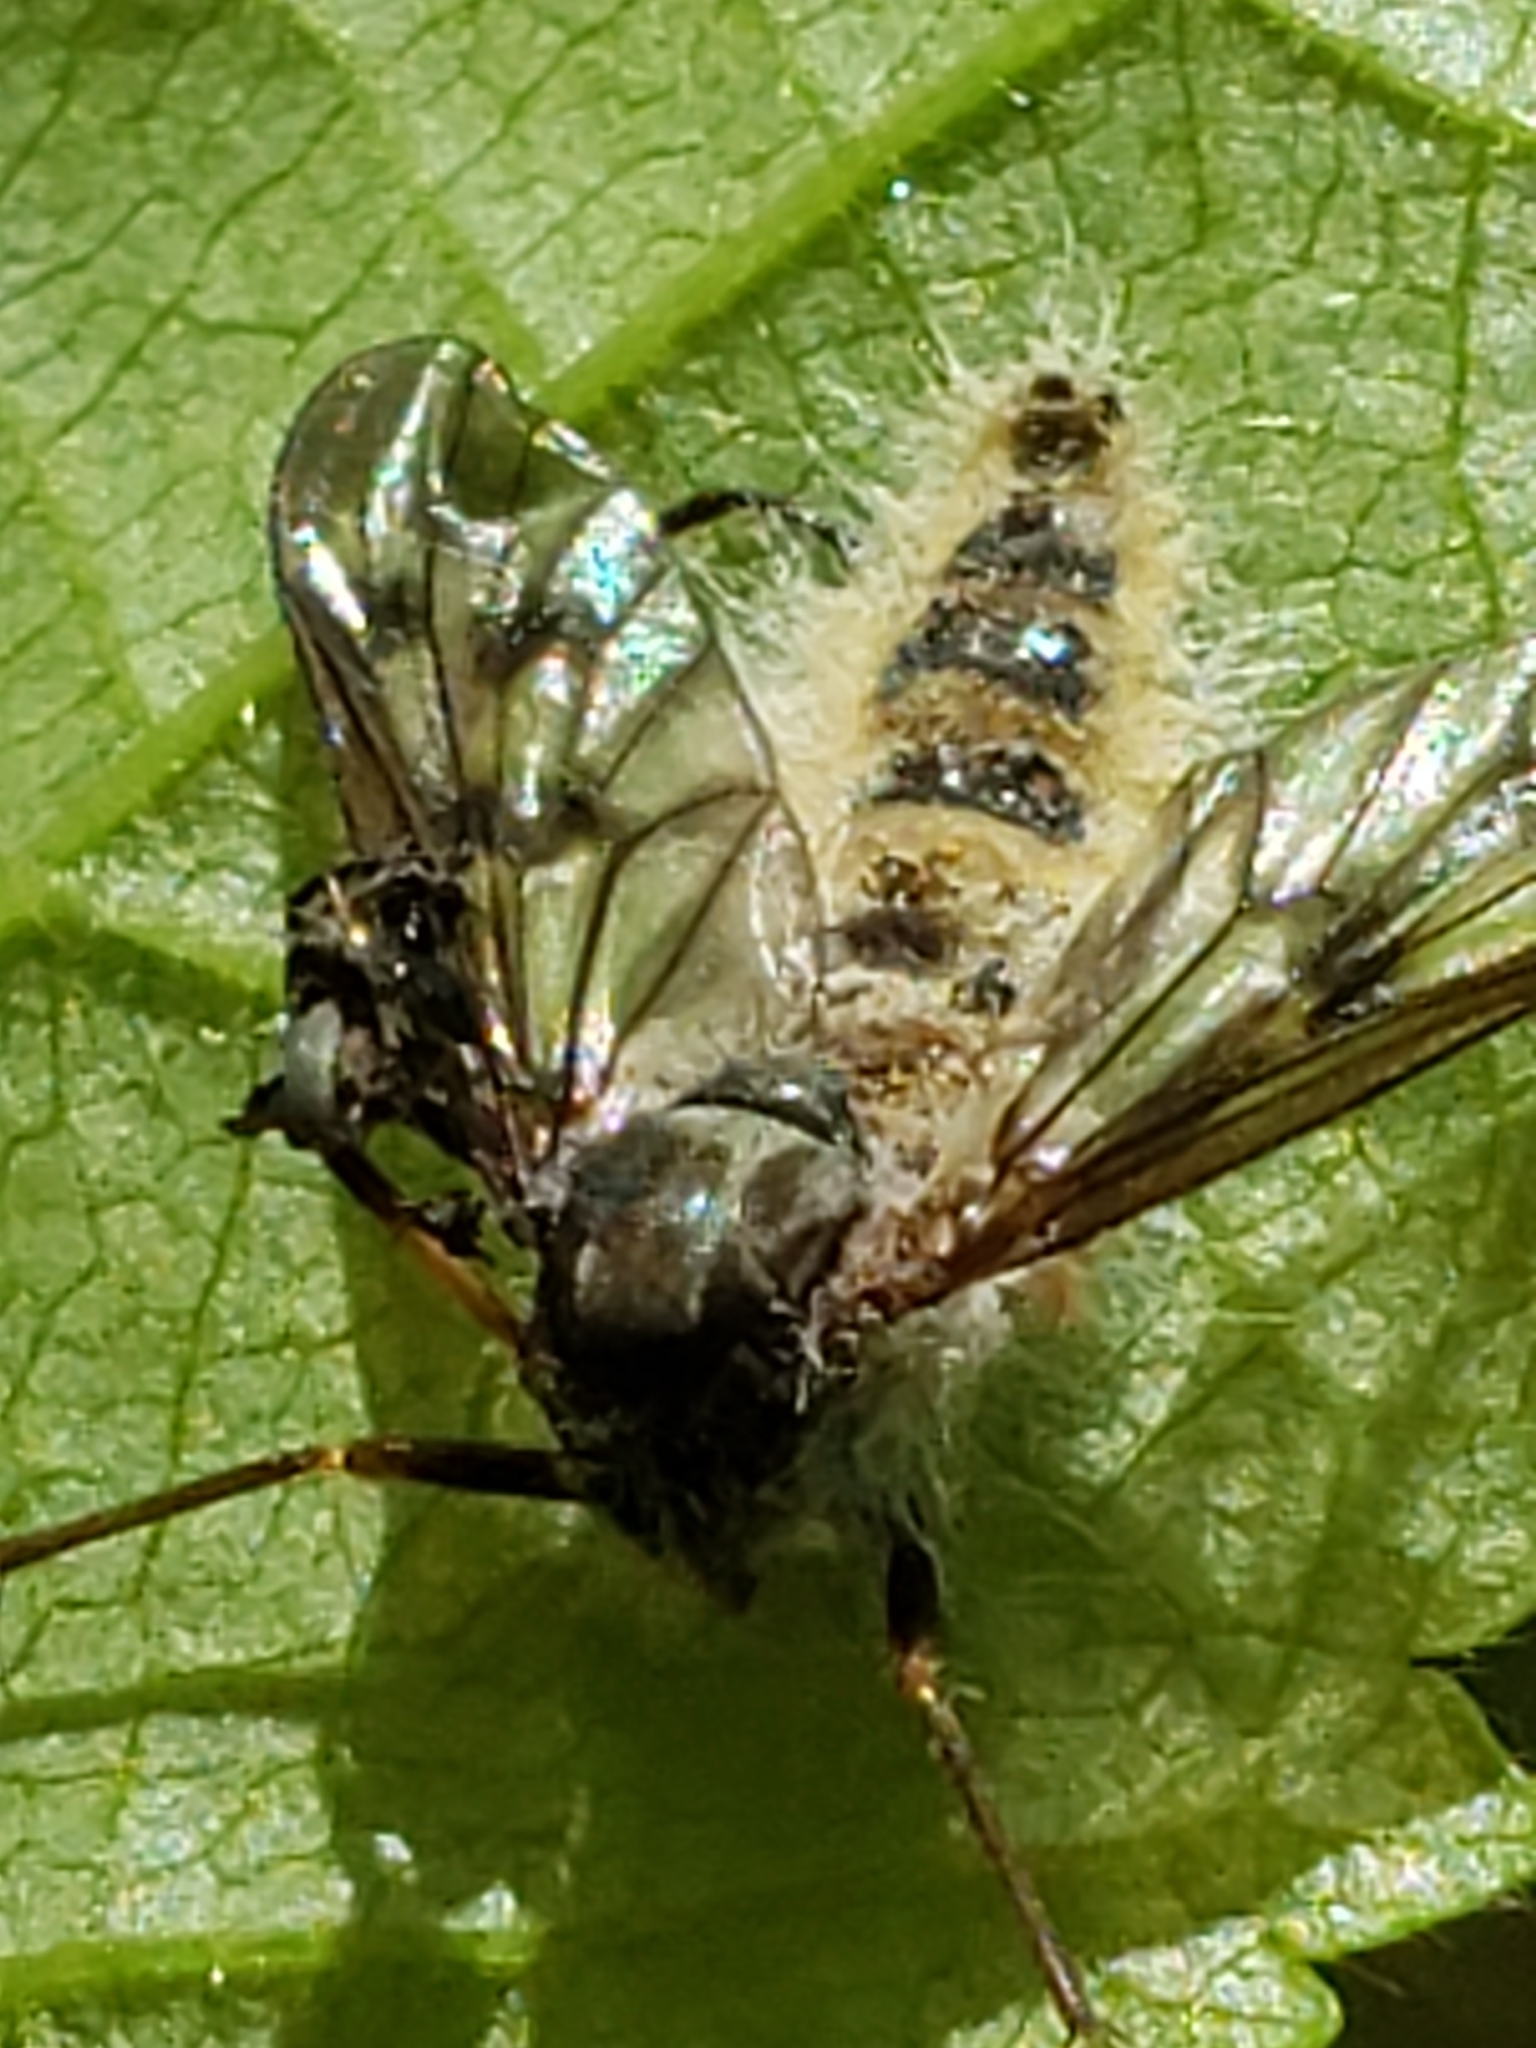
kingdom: Fungi
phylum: Entomophthoromycota
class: Entomophthoromycetes
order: Entomophthorales
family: Entomophthoraceae
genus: Furia
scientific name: Furia ithacensis
